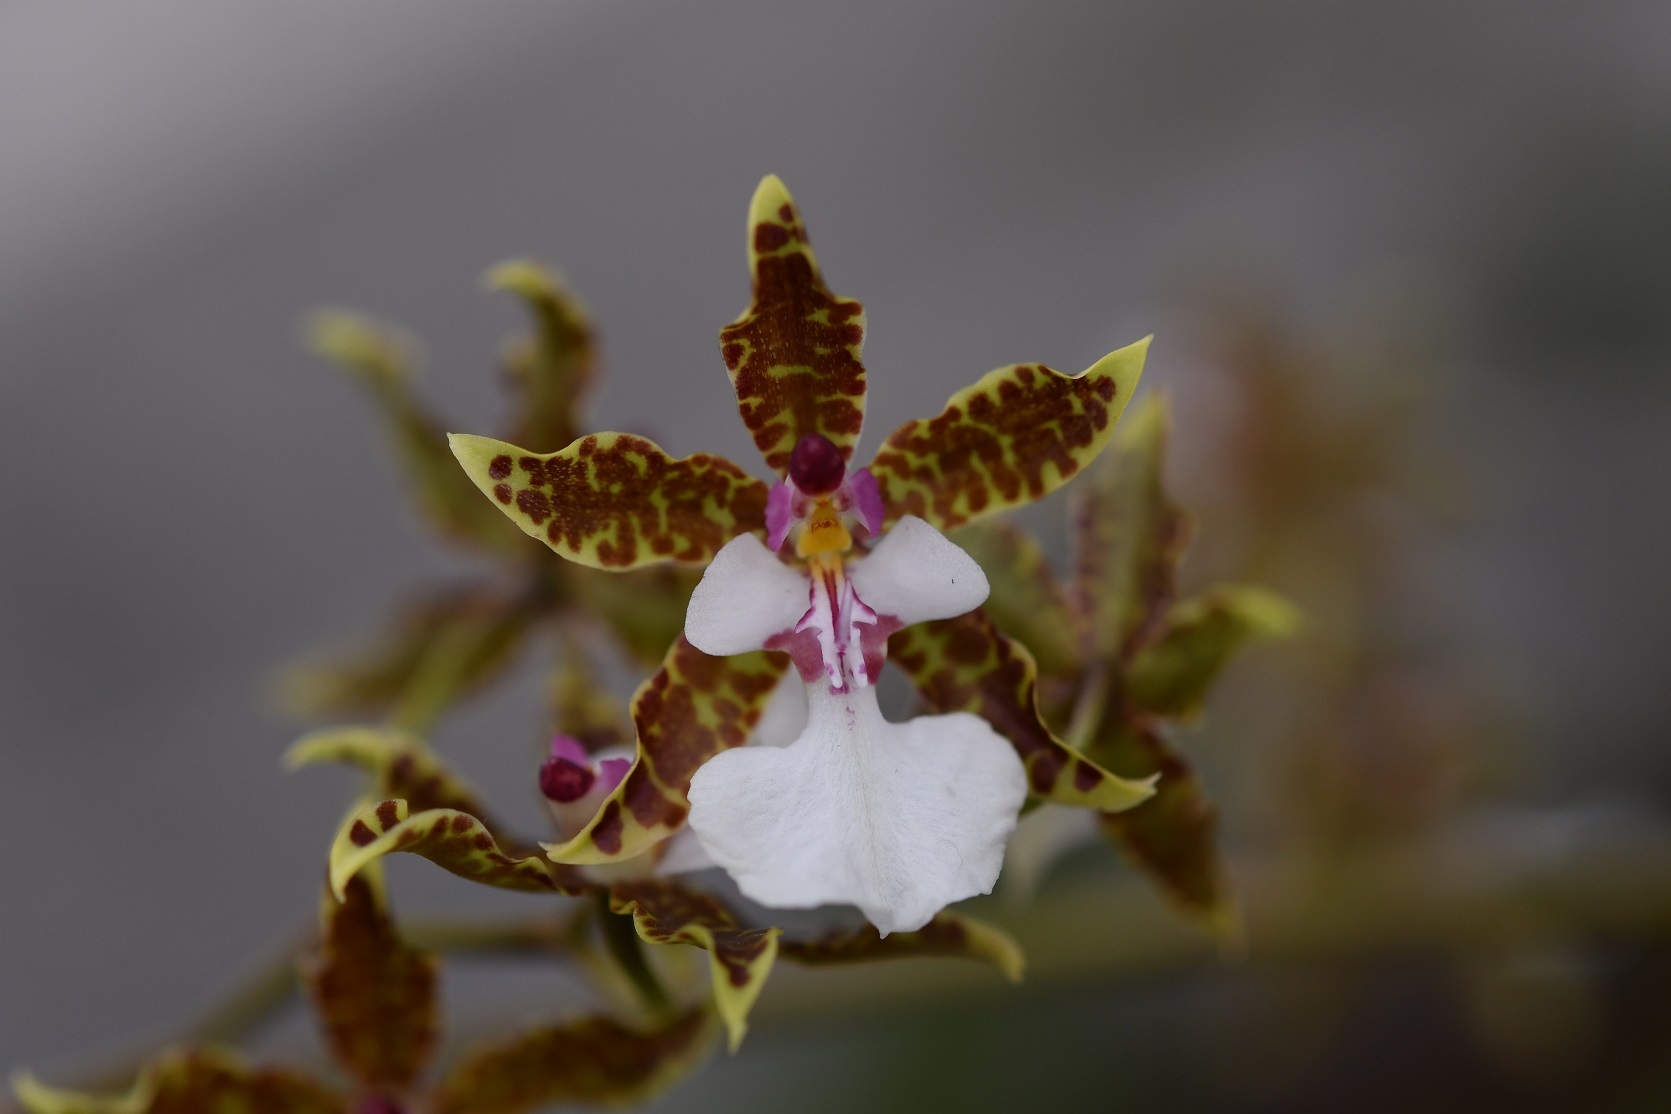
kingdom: Plantae
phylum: Tracheophyta
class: Liliopsida
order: Asparagales
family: Orchidaceae
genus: Oncidium
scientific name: Oncidium leucochilum
